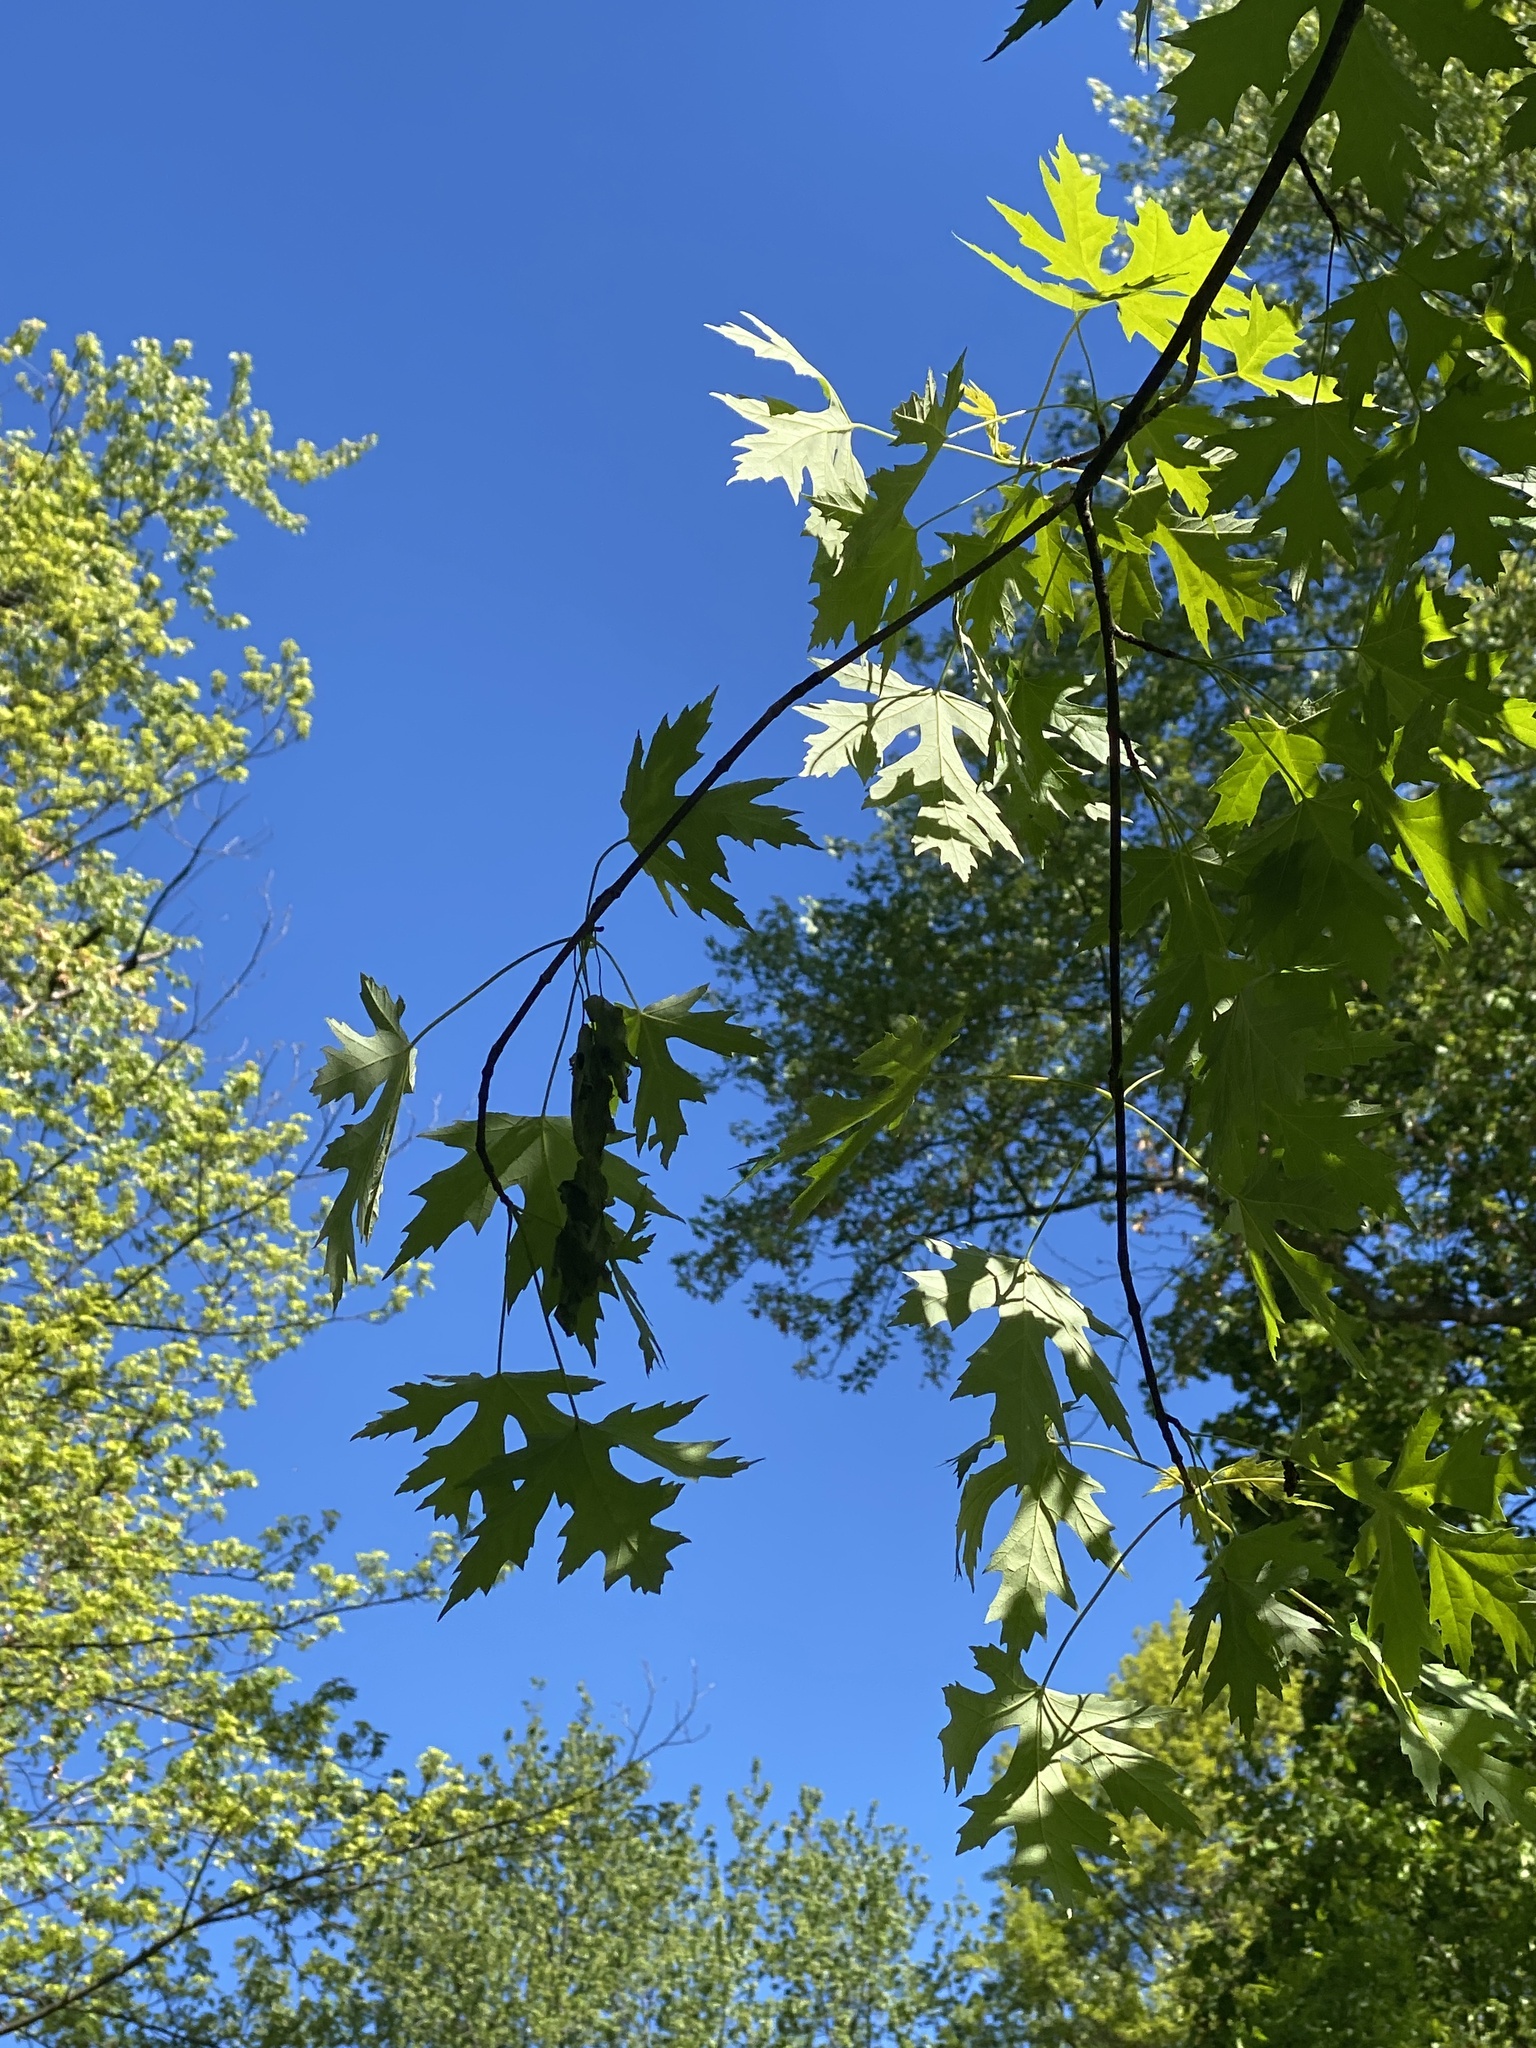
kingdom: Plantae
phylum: Tracheophyta
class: Magnoliopsida
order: Sapindales
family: Sapindaceae
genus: Acer
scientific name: Acer saccharinum
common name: Silver maple
